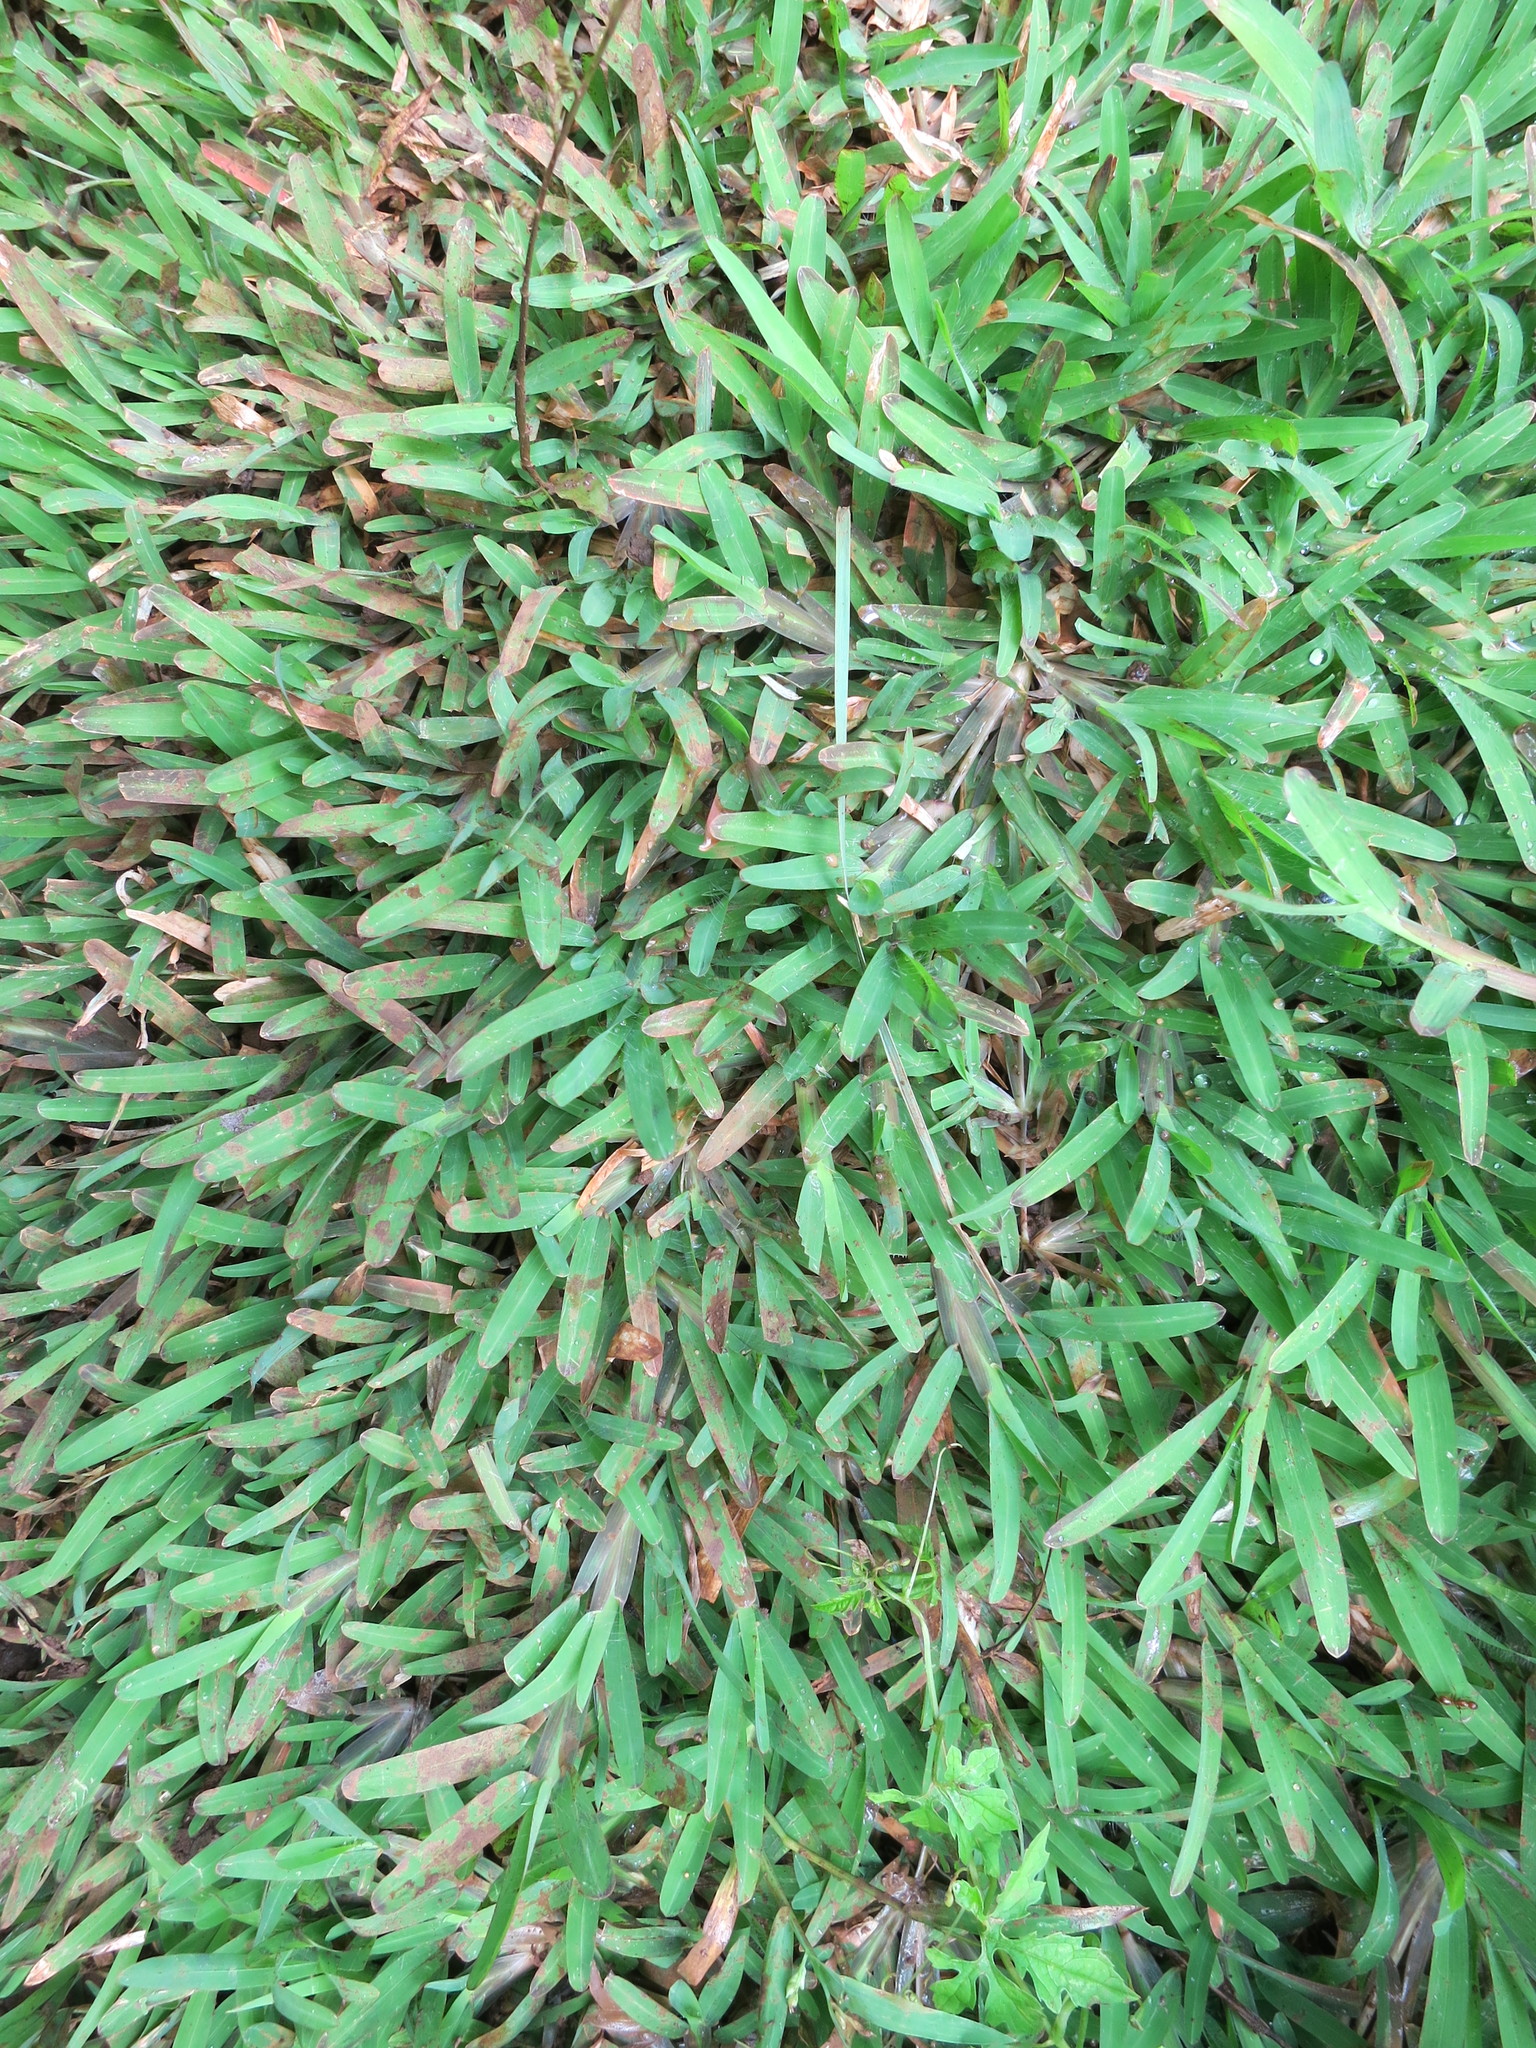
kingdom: Plantae
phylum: Tracheophyta
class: Liliopsida
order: Poales
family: Poaceae
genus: Neostapfiella
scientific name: Neostapfiella perrieri
